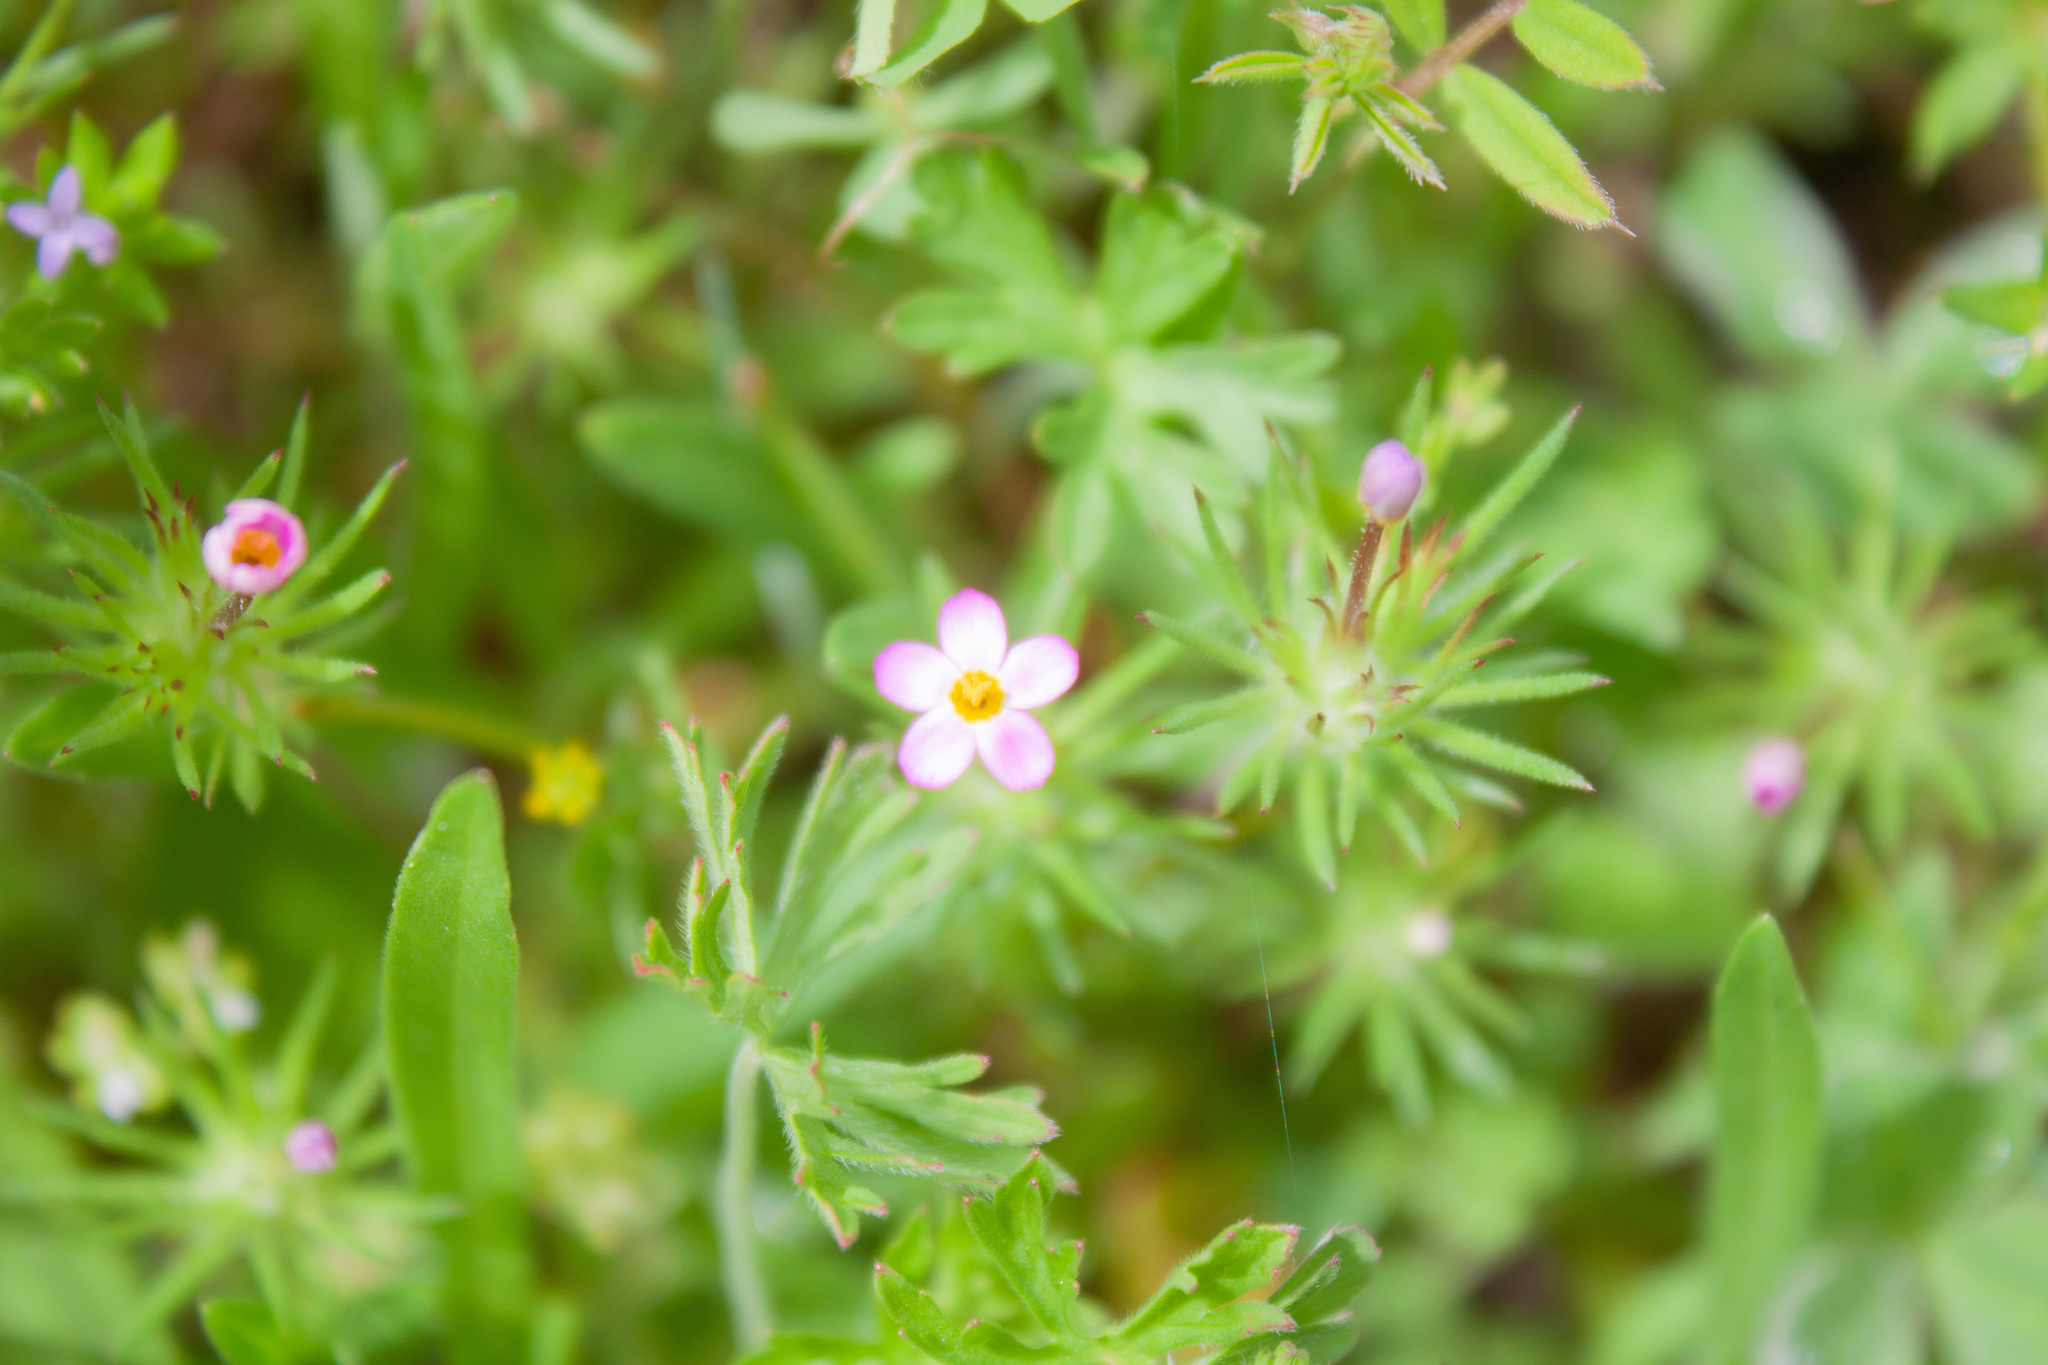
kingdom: Plantae
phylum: Tracheophyta
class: Magnoliopsida
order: Ericales
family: Polemoniaceae
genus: Leptosiphon
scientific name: Leptosiphon bicolor
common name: True babystars
